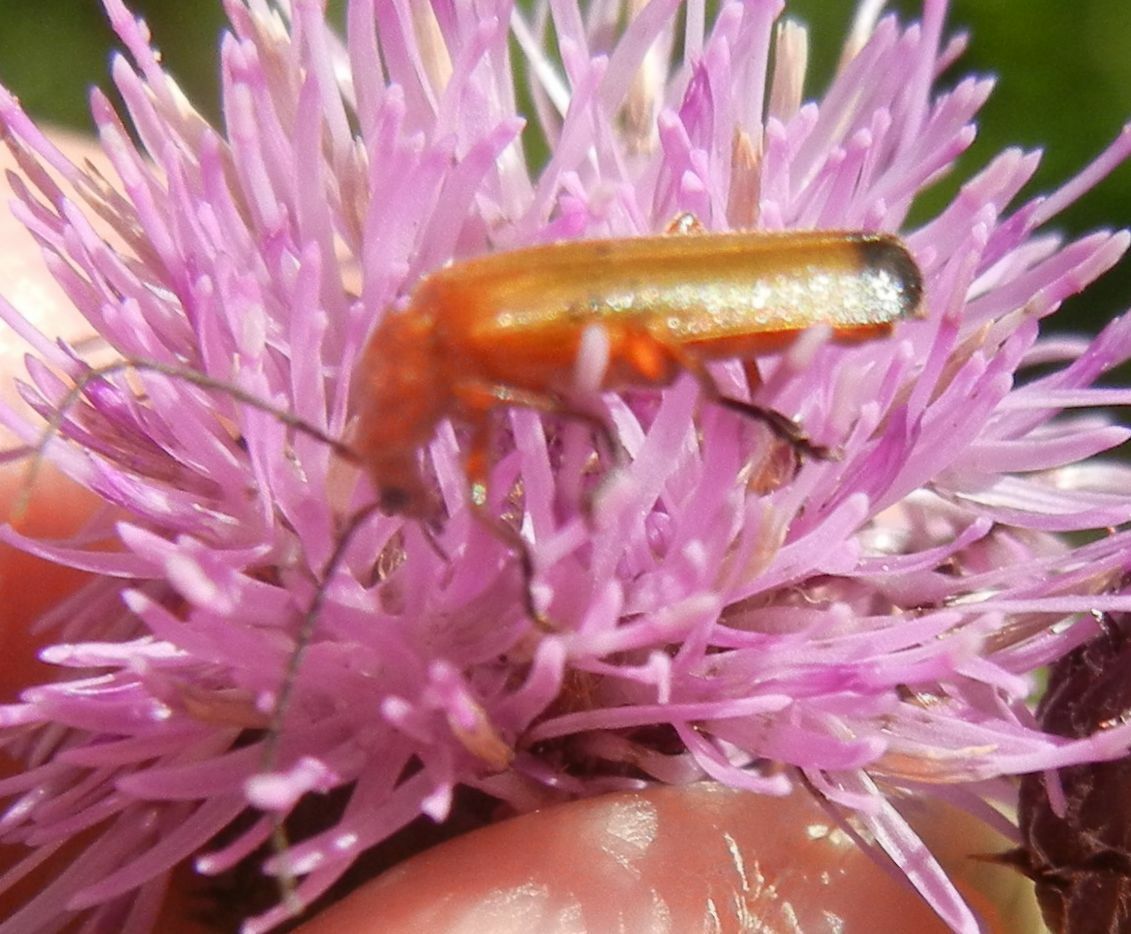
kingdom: Animalia
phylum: Arthropoda
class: Insecta
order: Coleoptera
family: Cantharidae
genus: Rhagonycha
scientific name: Rhagonycha fulva
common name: Common red soldier beetle
